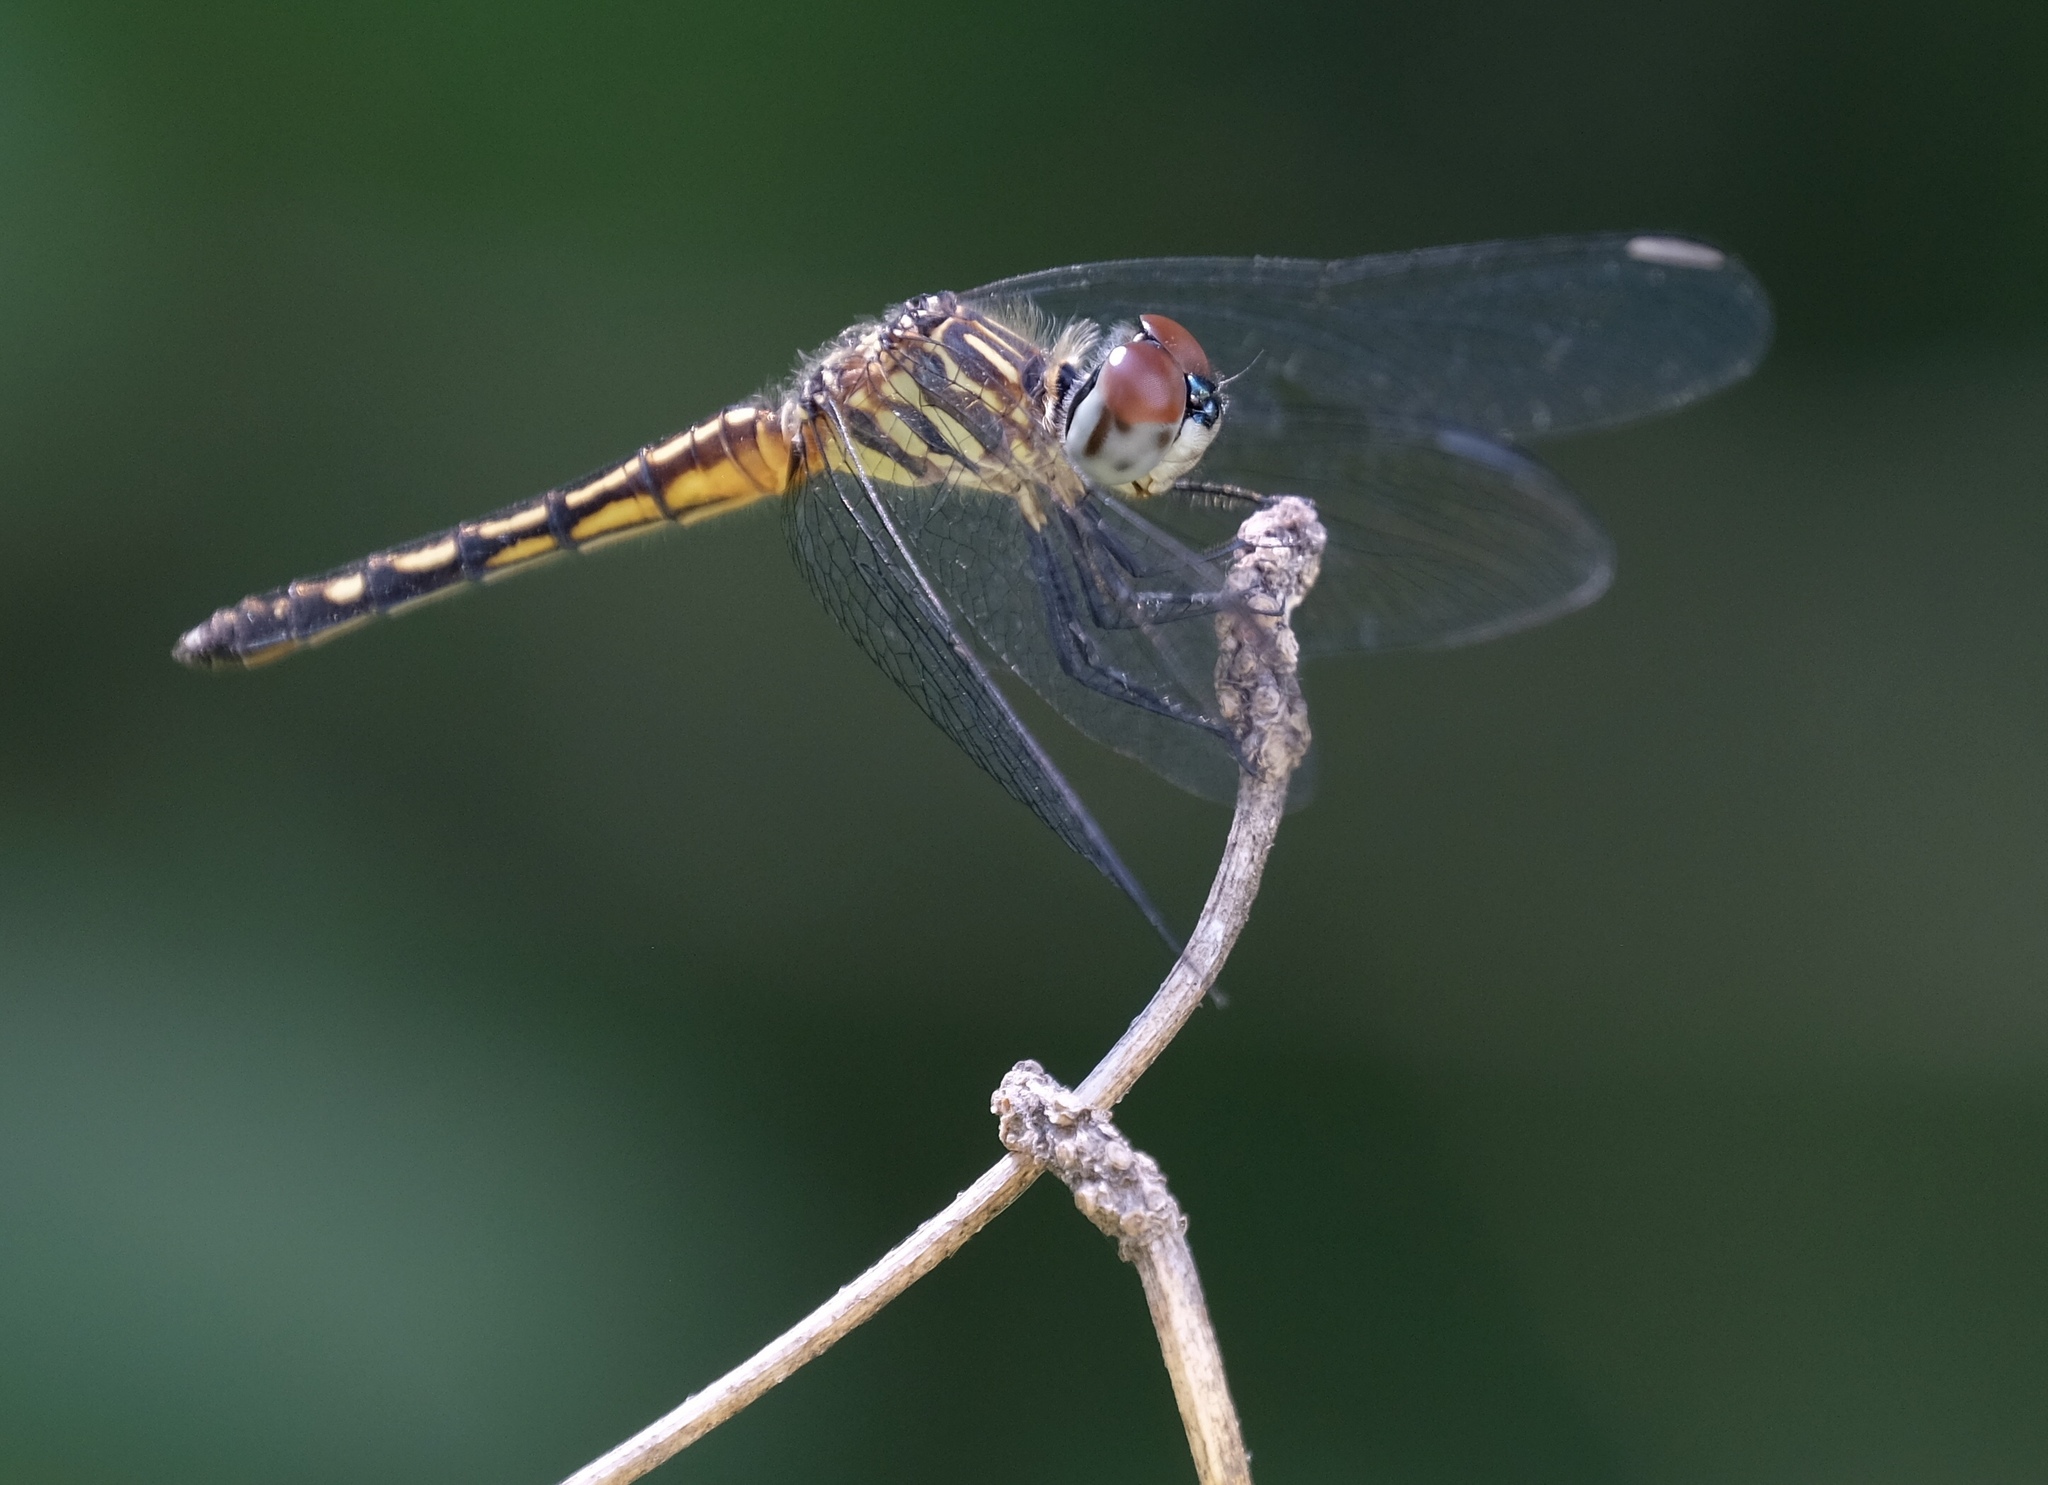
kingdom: Animalia
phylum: Arthropoda
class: Insecta
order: Odonata
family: Libellulidae
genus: Pachydiplax
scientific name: Pachydiplax longipennis
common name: Blue dasher
